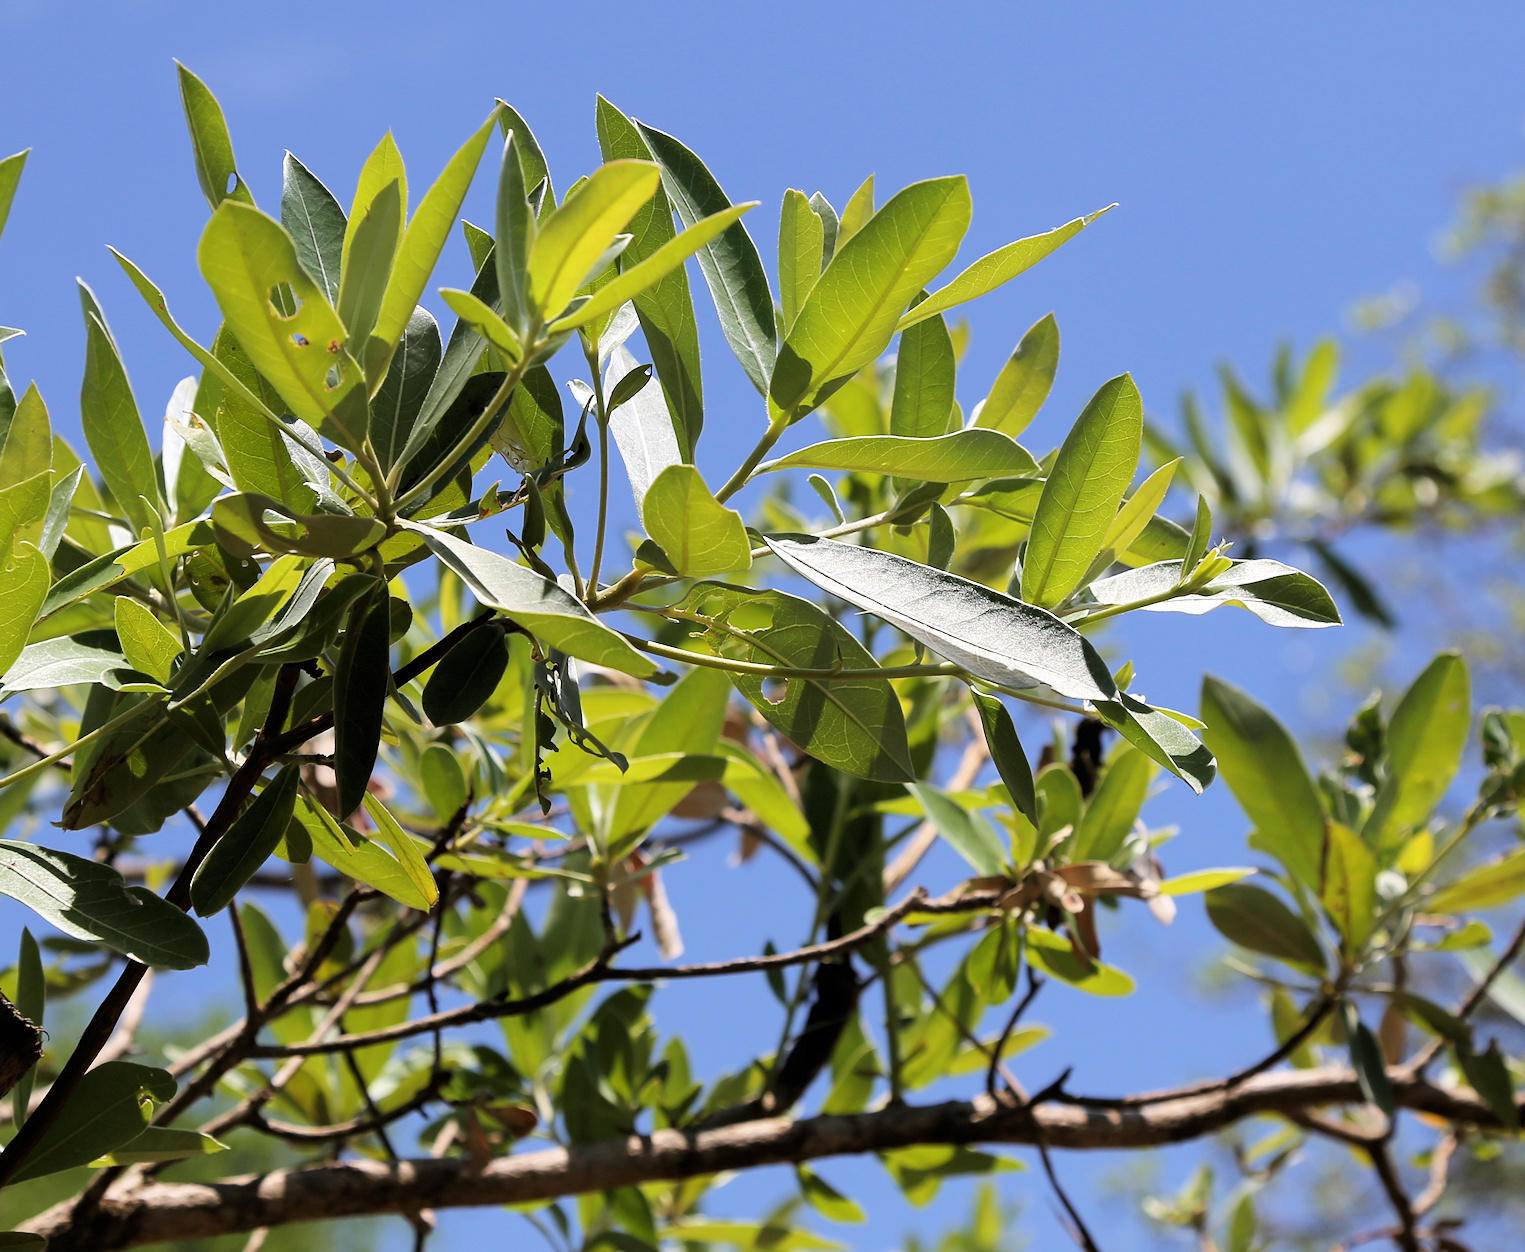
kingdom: Plantae
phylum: Tracheophyta
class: Magnoliopsida
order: Myrtales
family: Combretaceae
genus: Terminalia
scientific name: Terminalia sericea
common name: Clusterleaf
